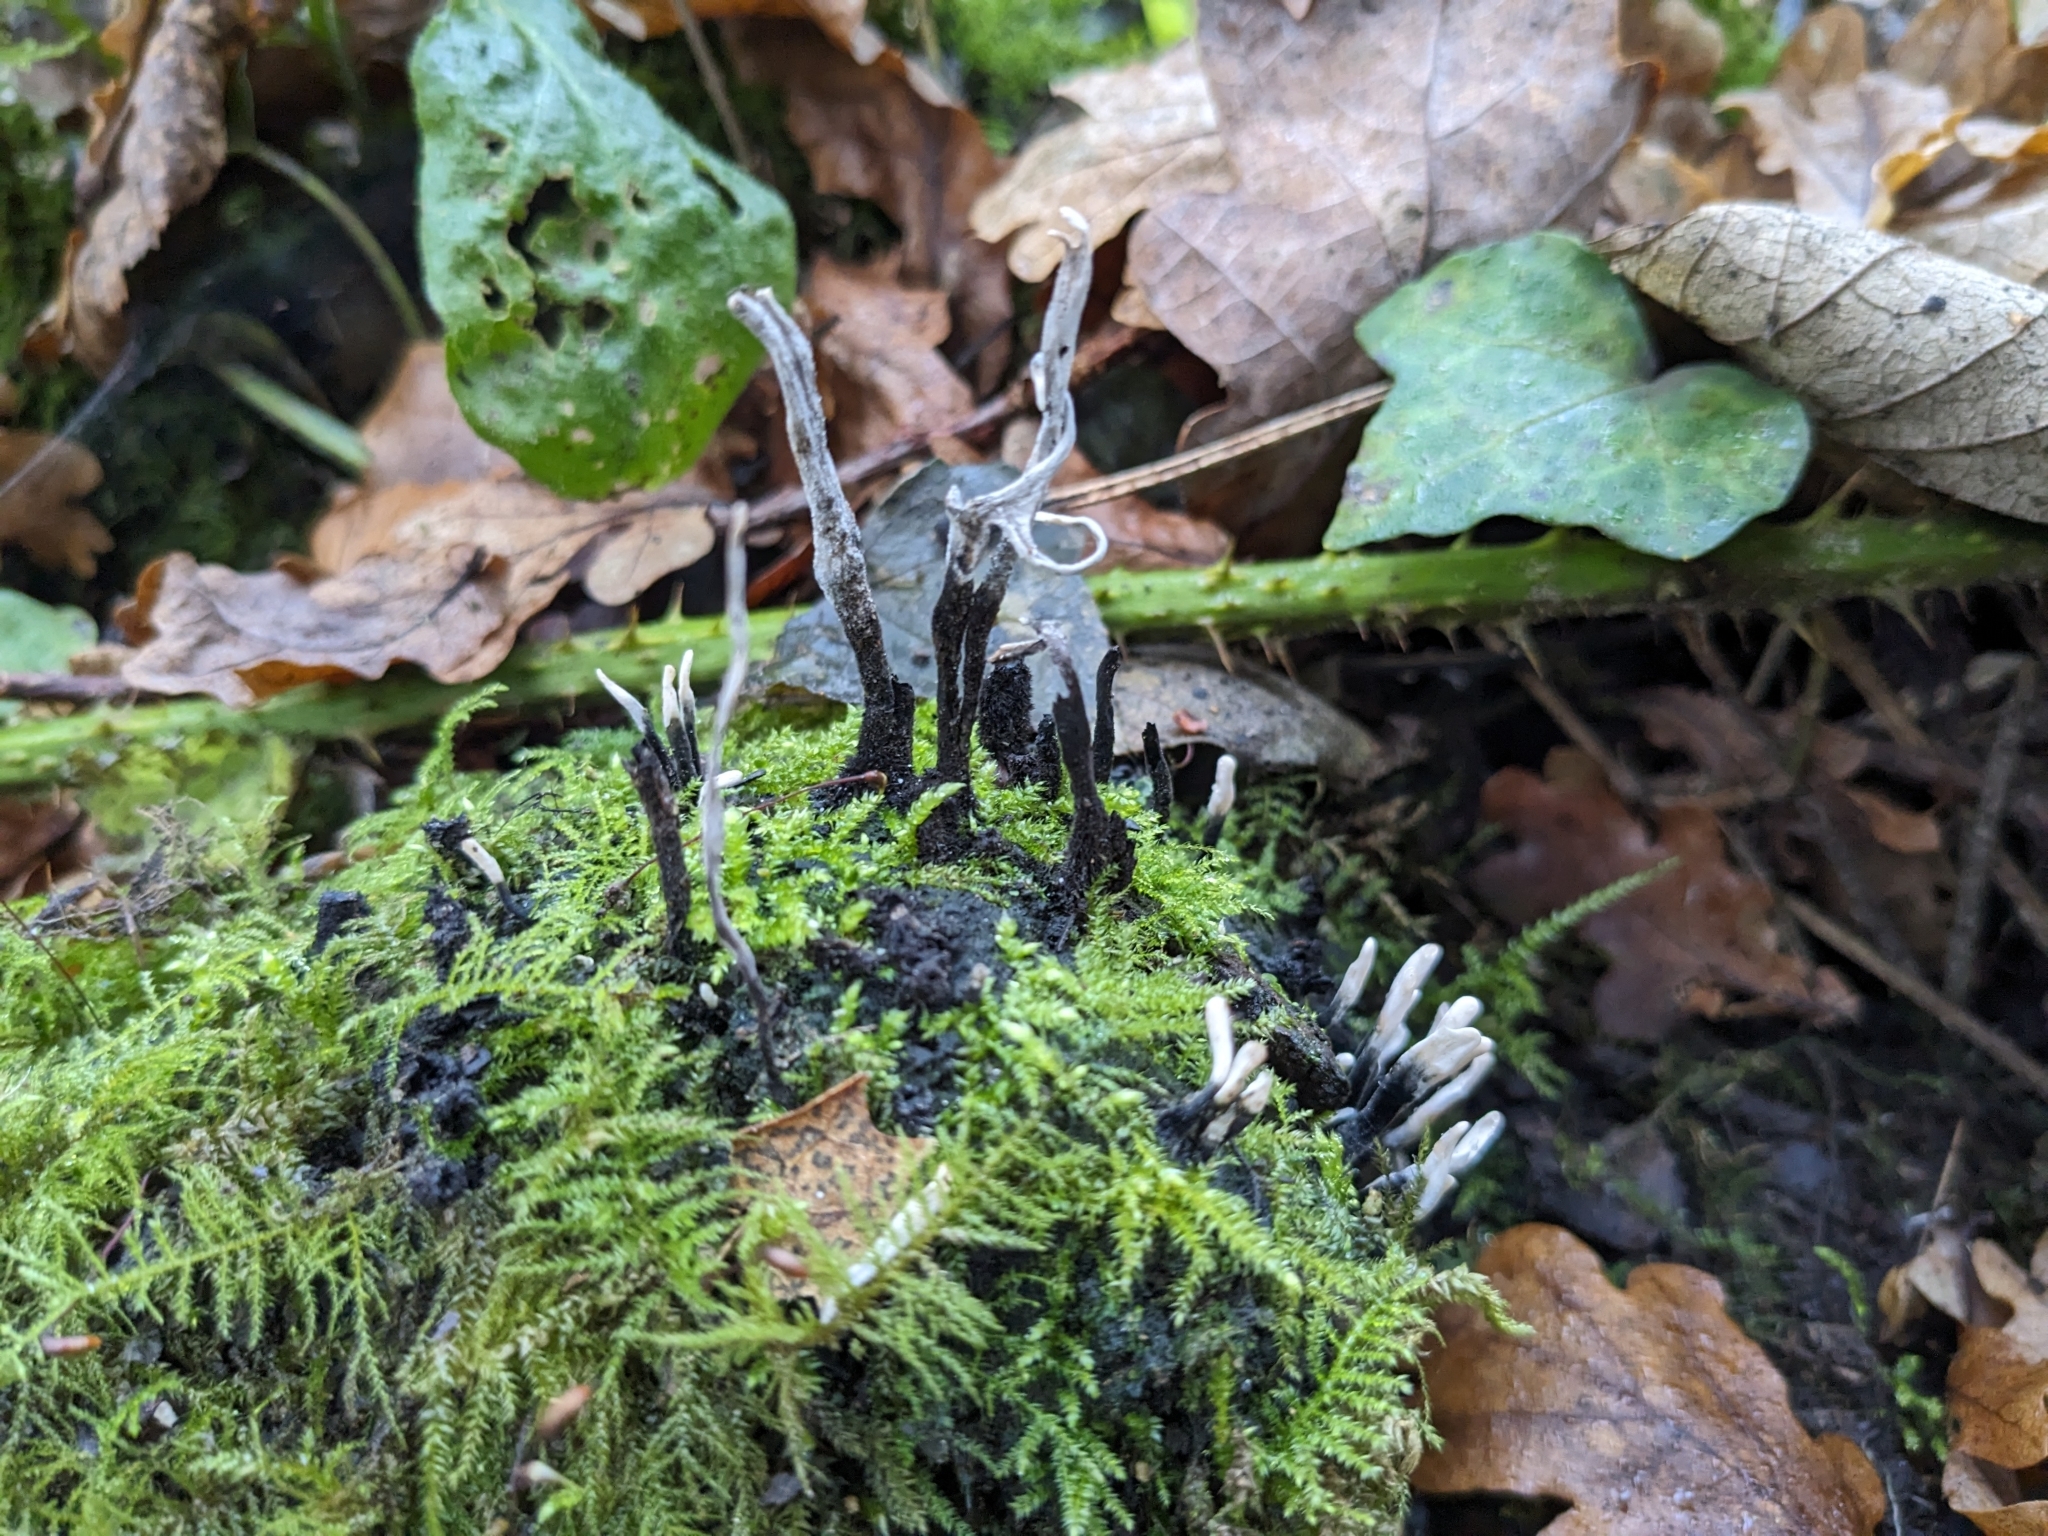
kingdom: Fungi
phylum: Ascomycota
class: Sordariomycetes
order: Xylariales
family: Xylariaceae
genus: Xylaria
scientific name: Xylaria hypoxylon
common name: Candle-snuff fungus
